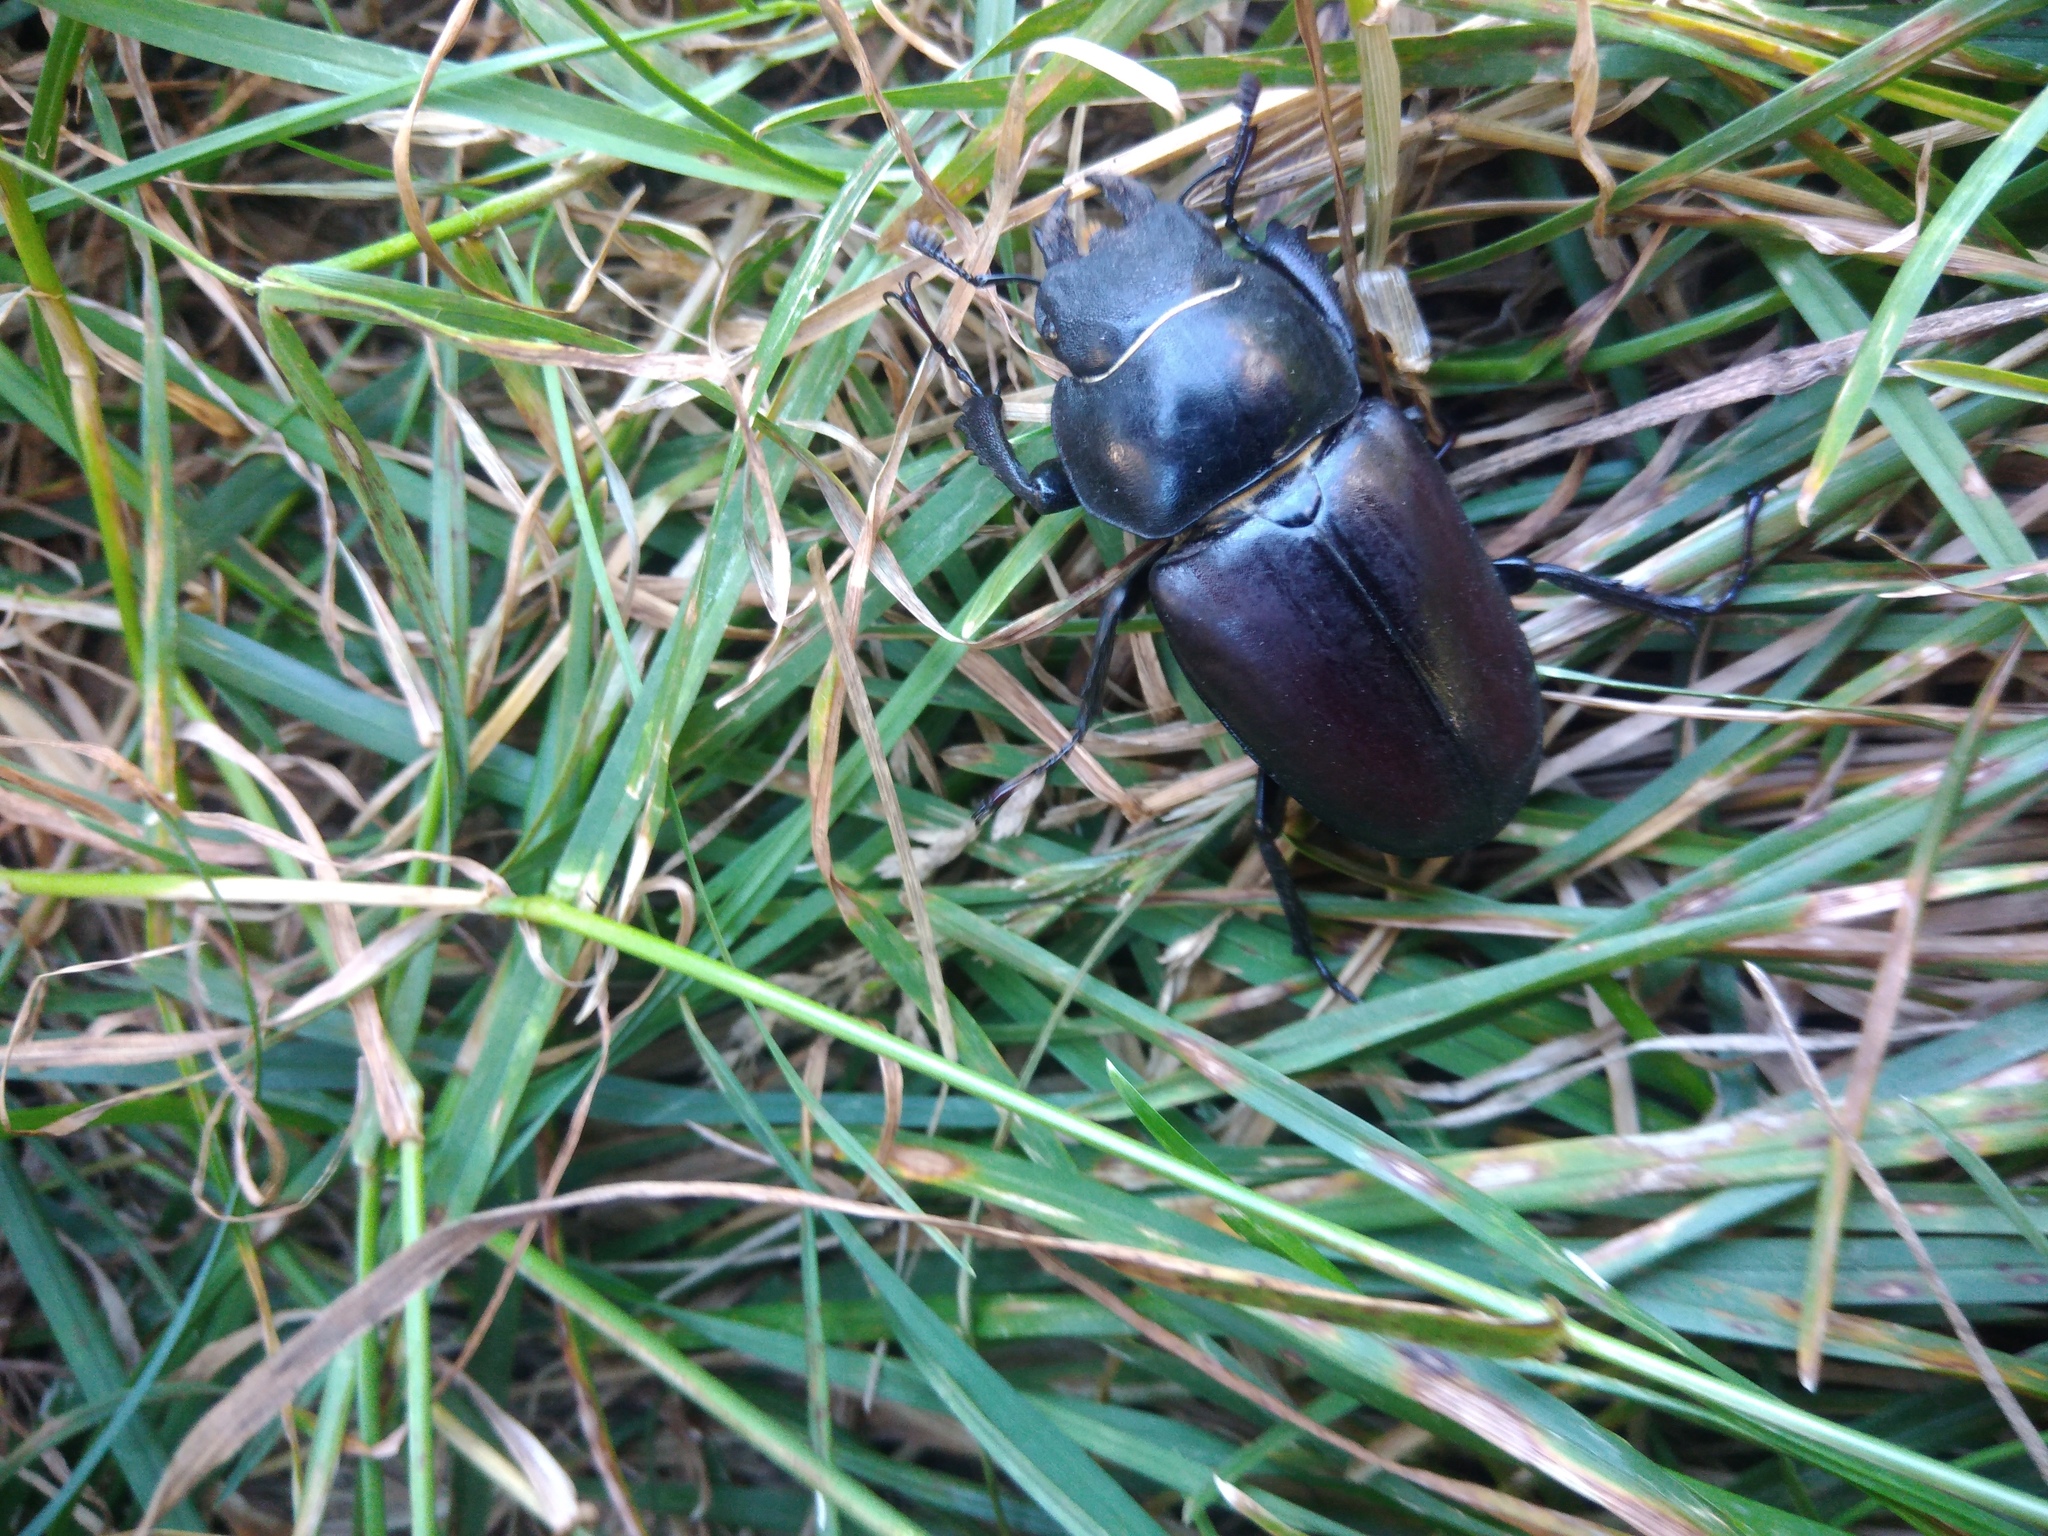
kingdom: Animalia
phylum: Arthropoda
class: Insecta
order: Coleoptera
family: Lucanidae
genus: Lucanus
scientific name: Lucanus cervus
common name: Stag beetle
